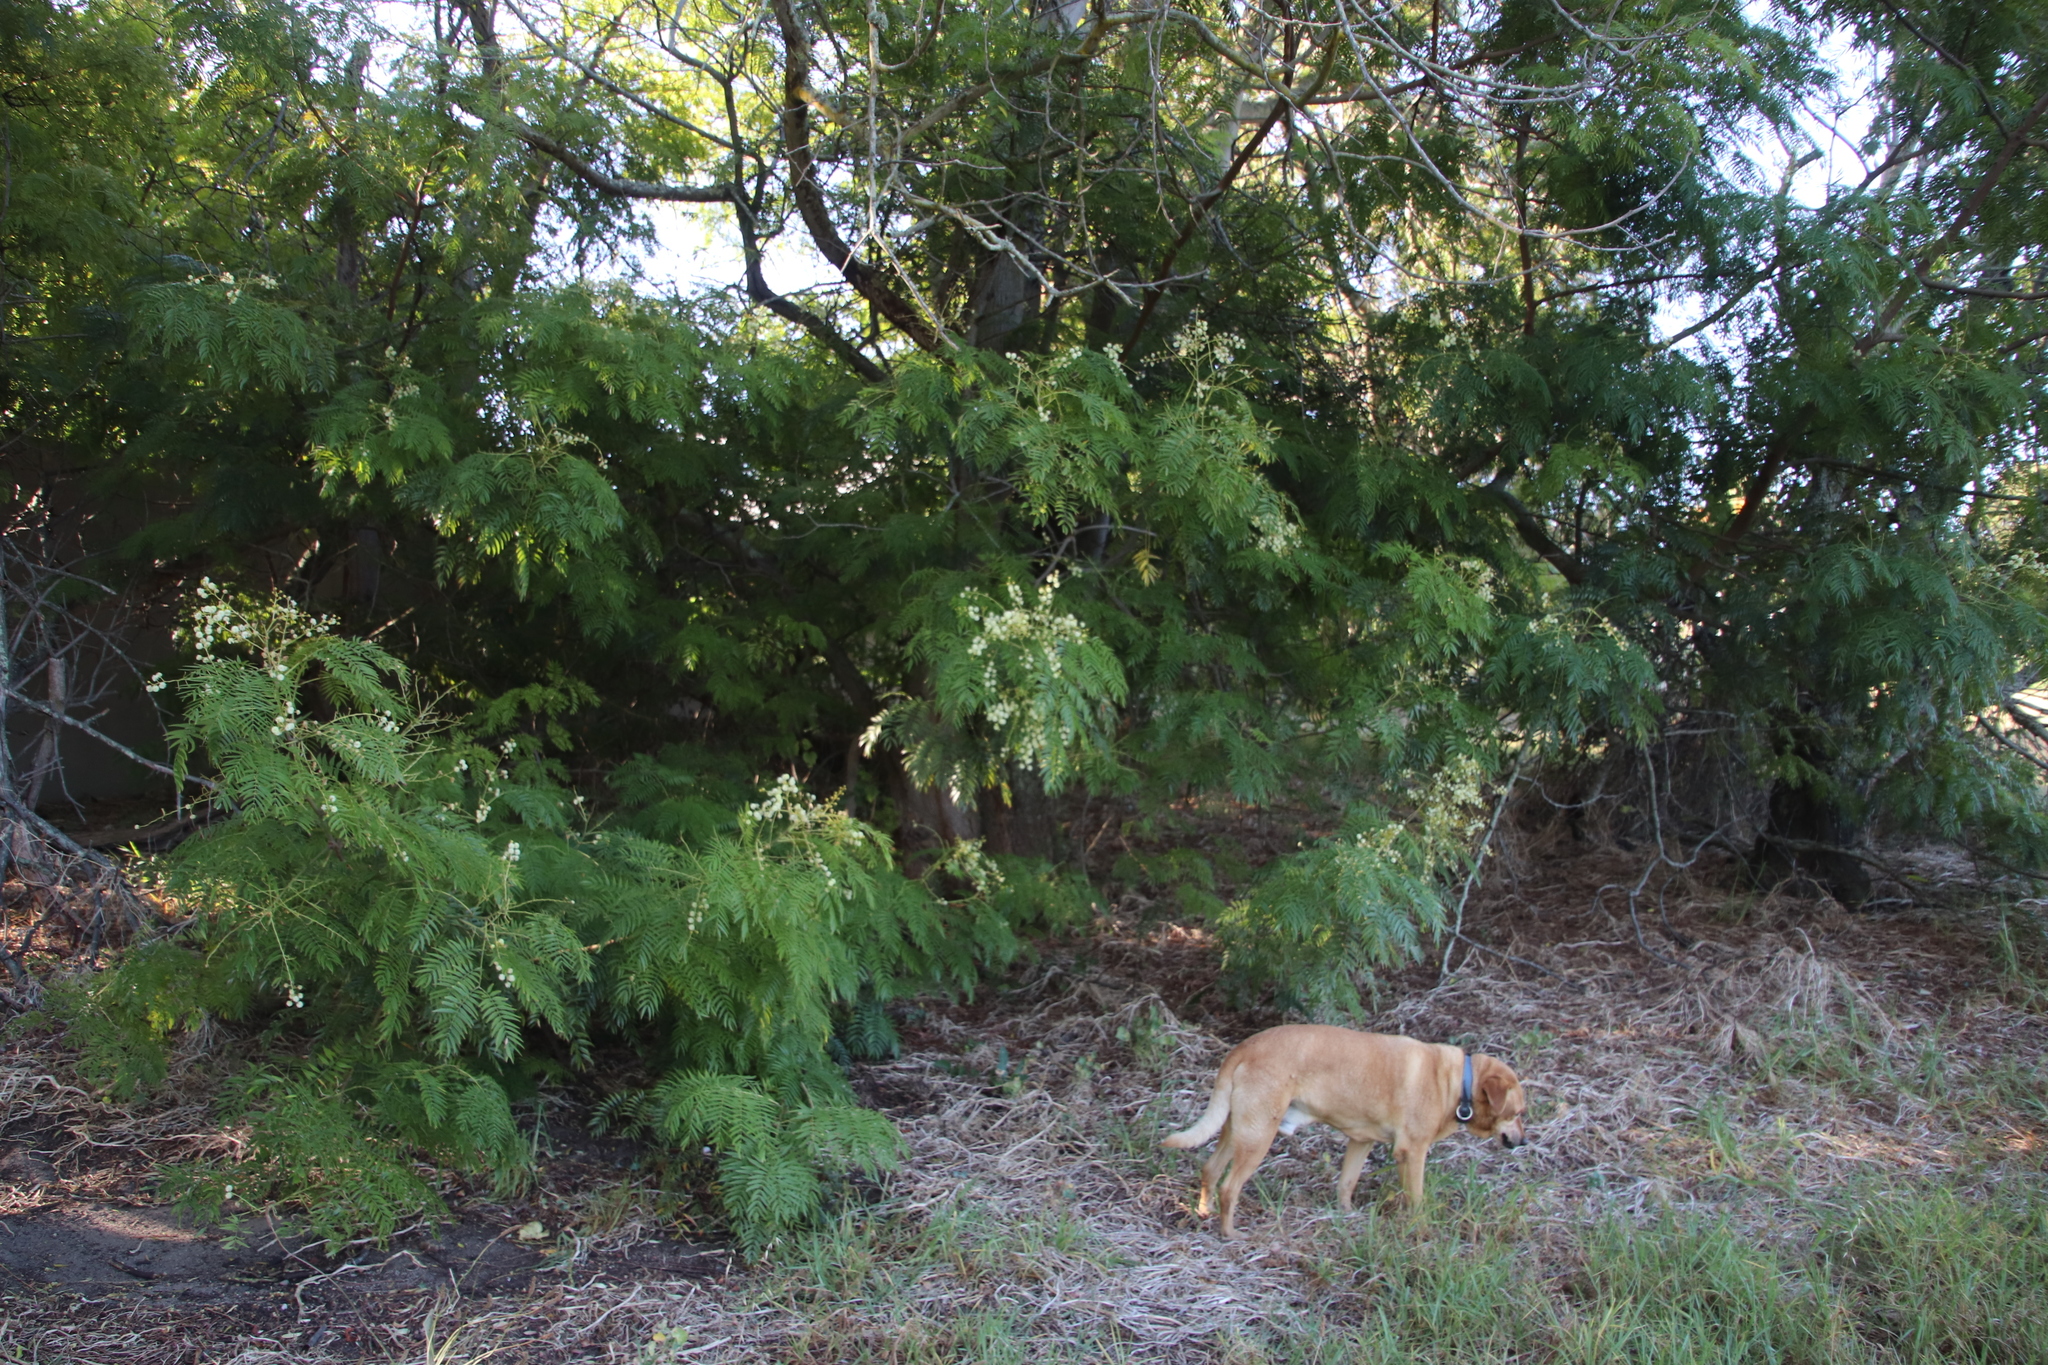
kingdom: Plantae
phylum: Tracheophyta
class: Magnoliopsida
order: Fabales
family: Fabaceae
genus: Acacia
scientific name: Acacia elata
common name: Cedar wattle
